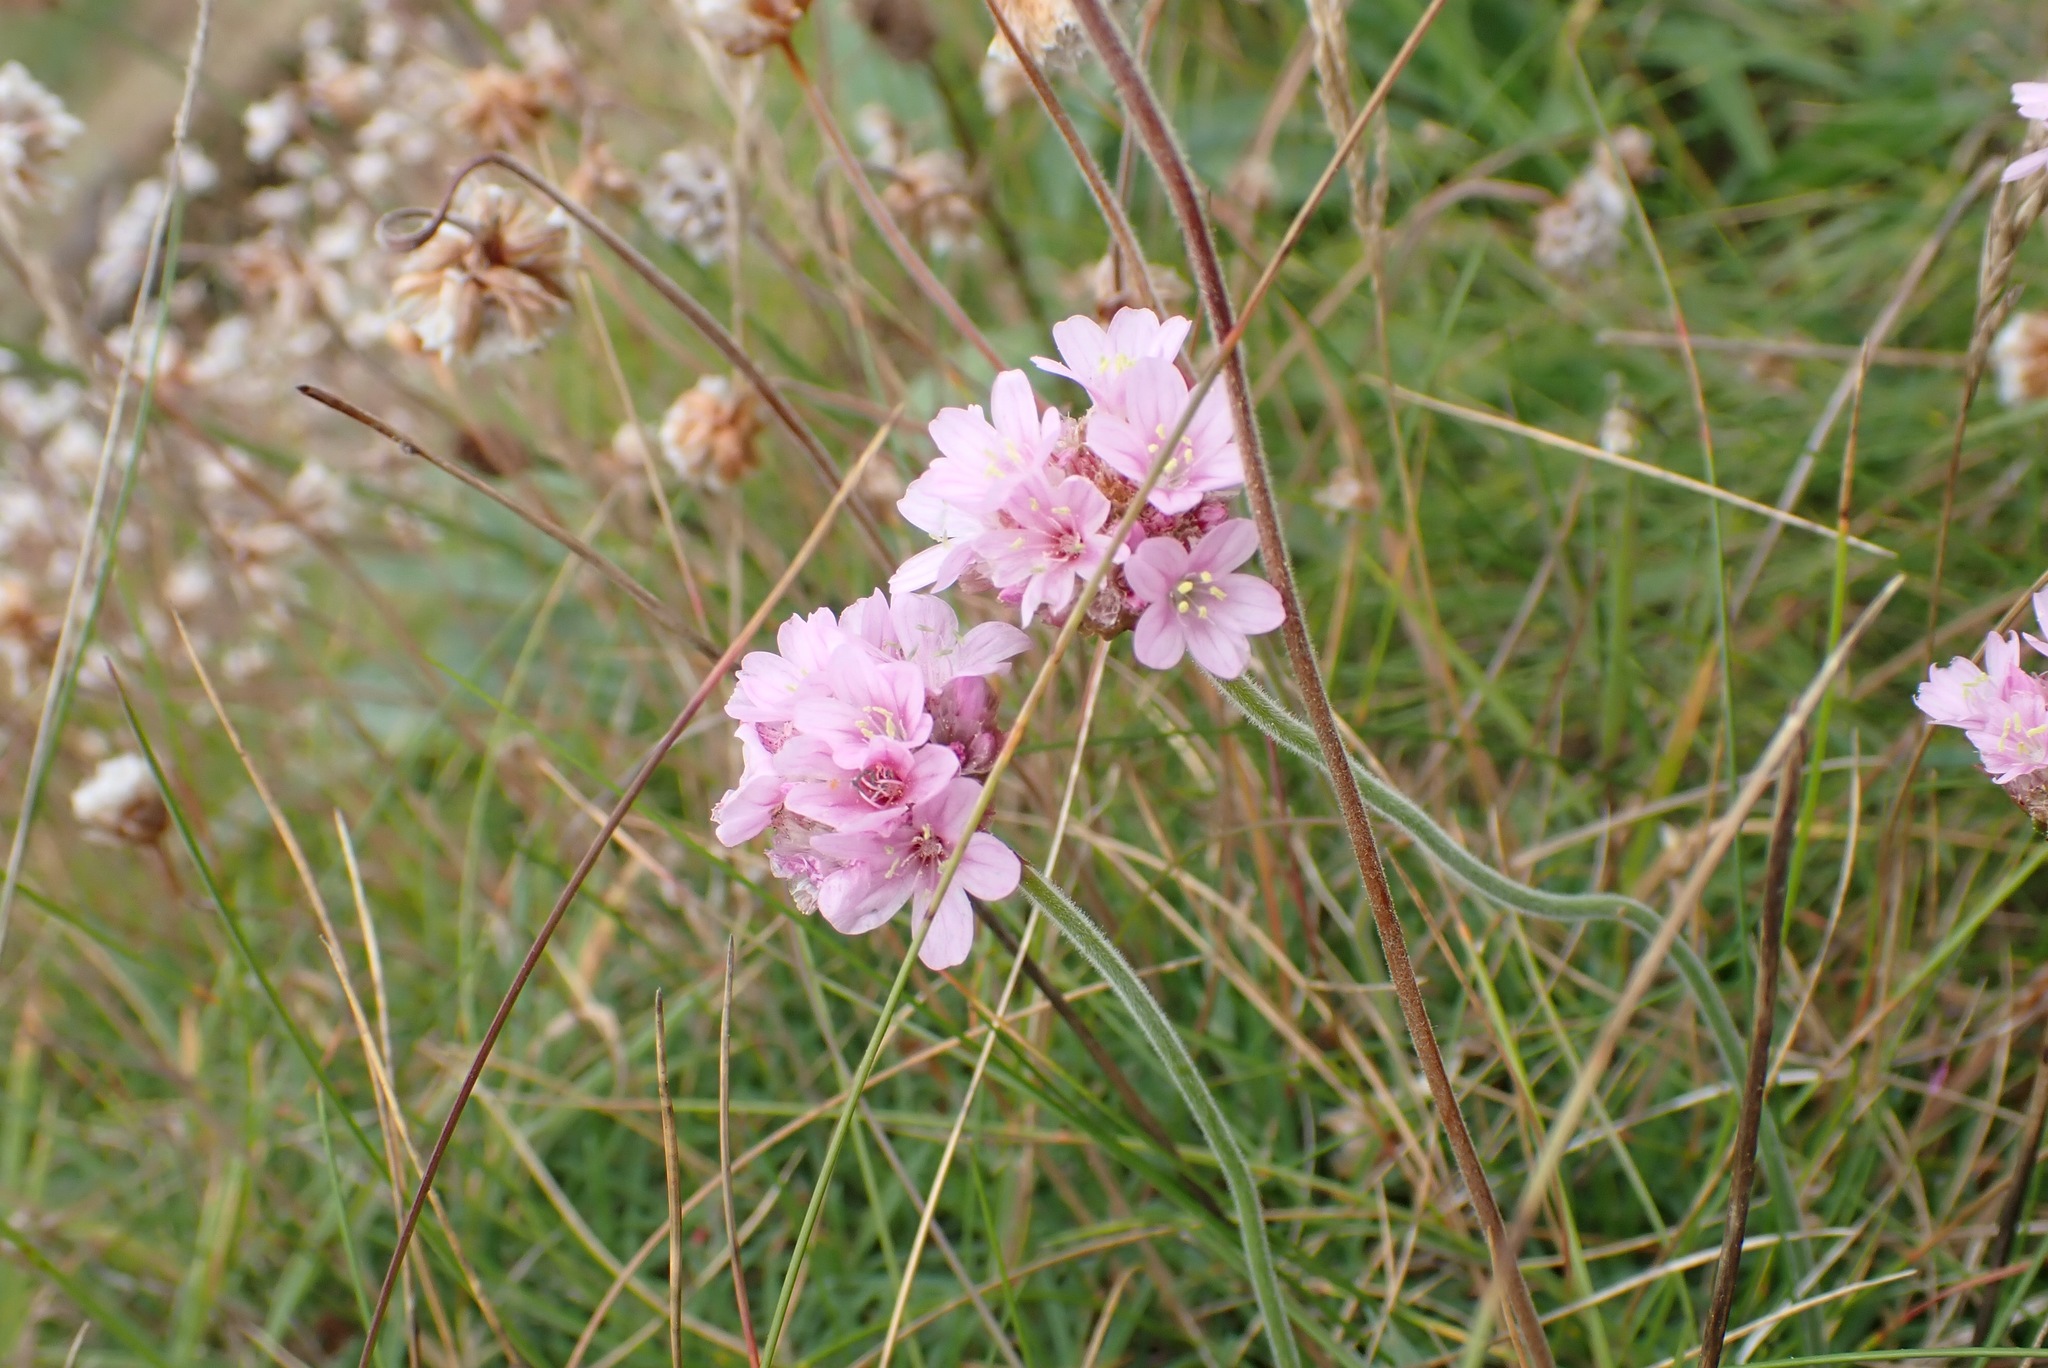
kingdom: Plantae
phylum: Tracheophyta
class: Magnoliopsida
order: Caryophyllales
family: Plumbaginaceae
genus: Armeria
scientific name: Armeria maritima
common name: Thrift
